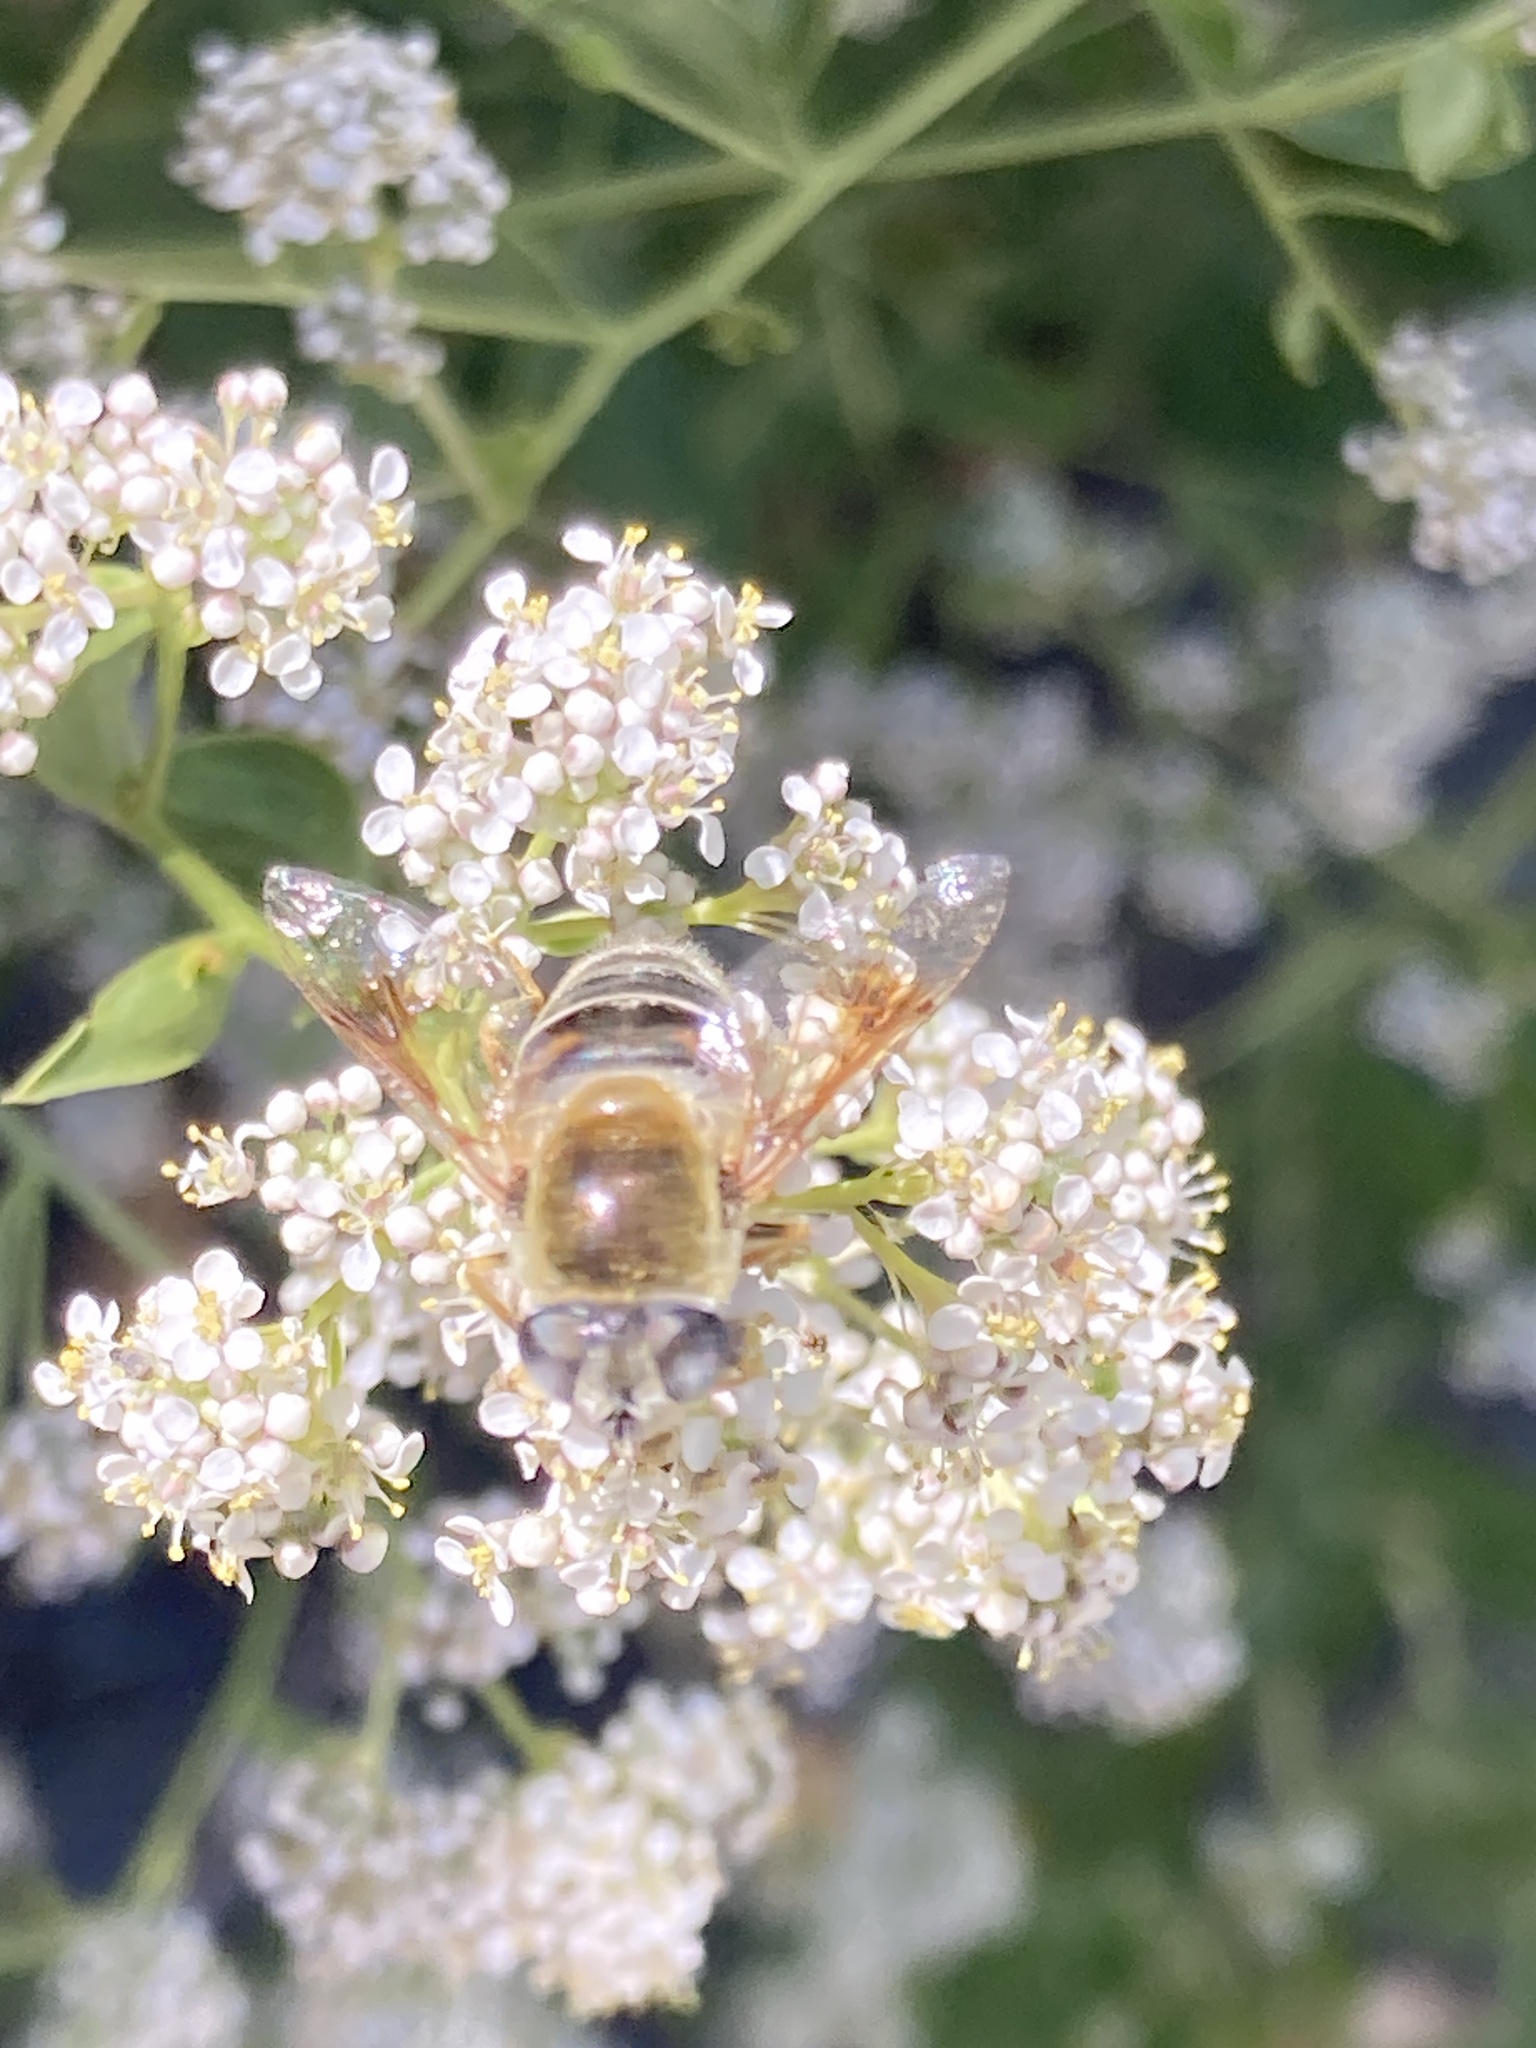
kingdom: Animalia
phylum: Arthropoda
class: Insecta
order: Diptera
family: Syrphidae
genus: Eristalis
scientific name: Eristalis stipator
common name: Yellow-shouldered drone fly
